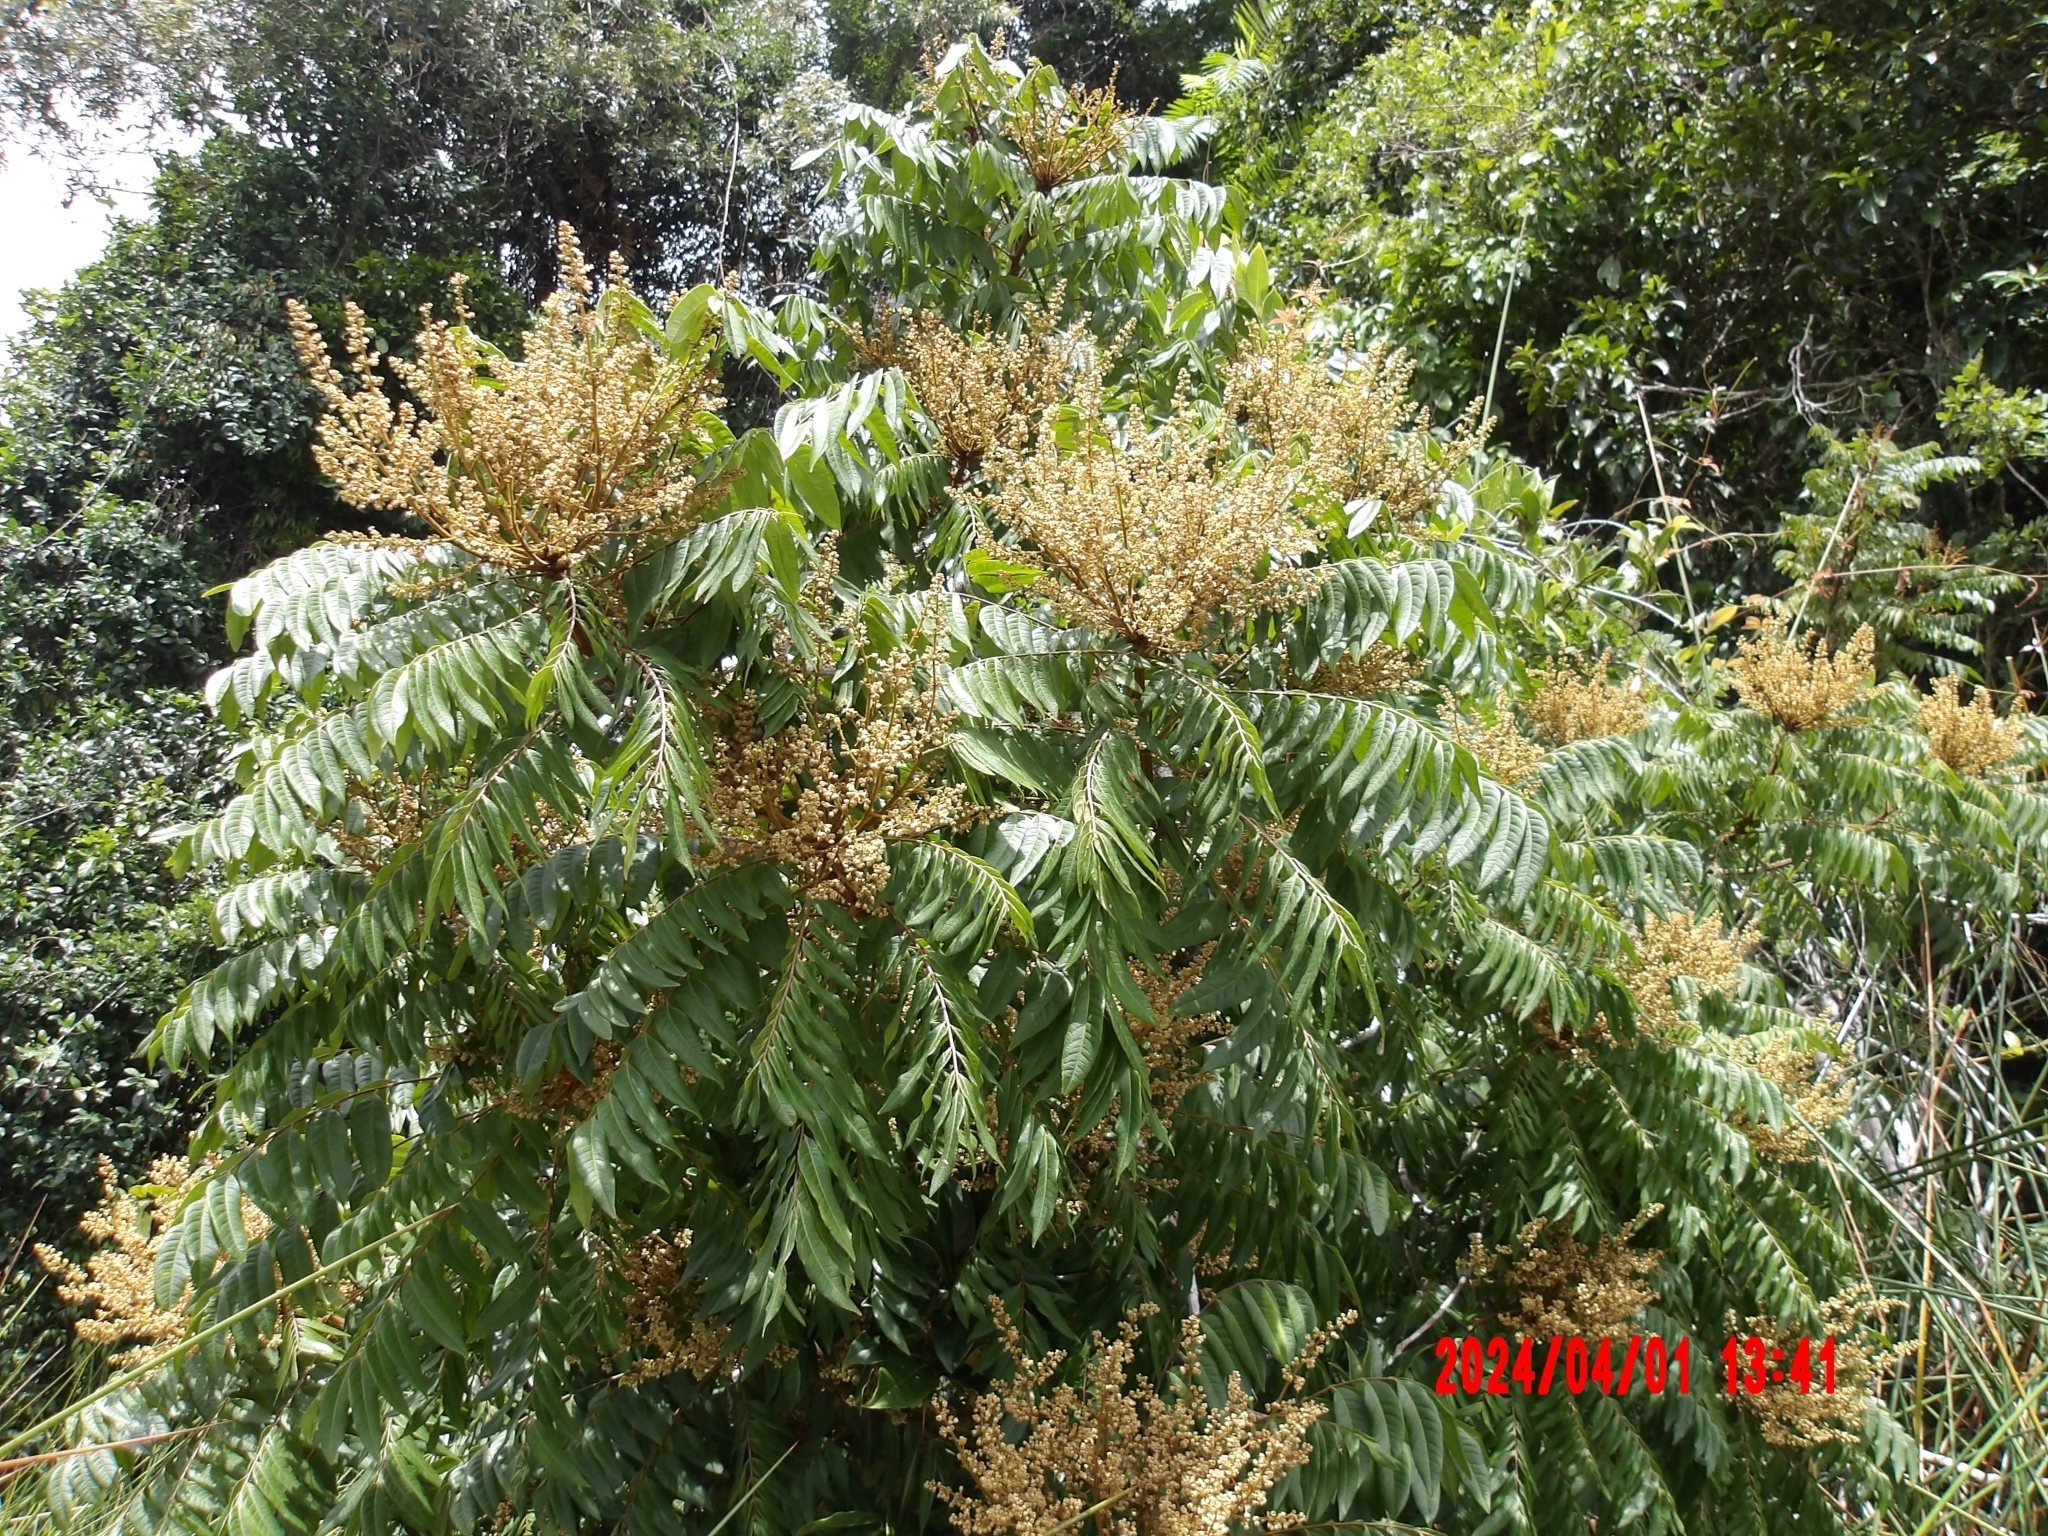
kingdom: Plantae
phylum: Tracheophyta
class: Magnoliopsida
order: Sapindales
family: Sapindaceae
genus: Jagera
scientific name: Jagera pseudorhus
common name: Fern-leaf-tamarind
